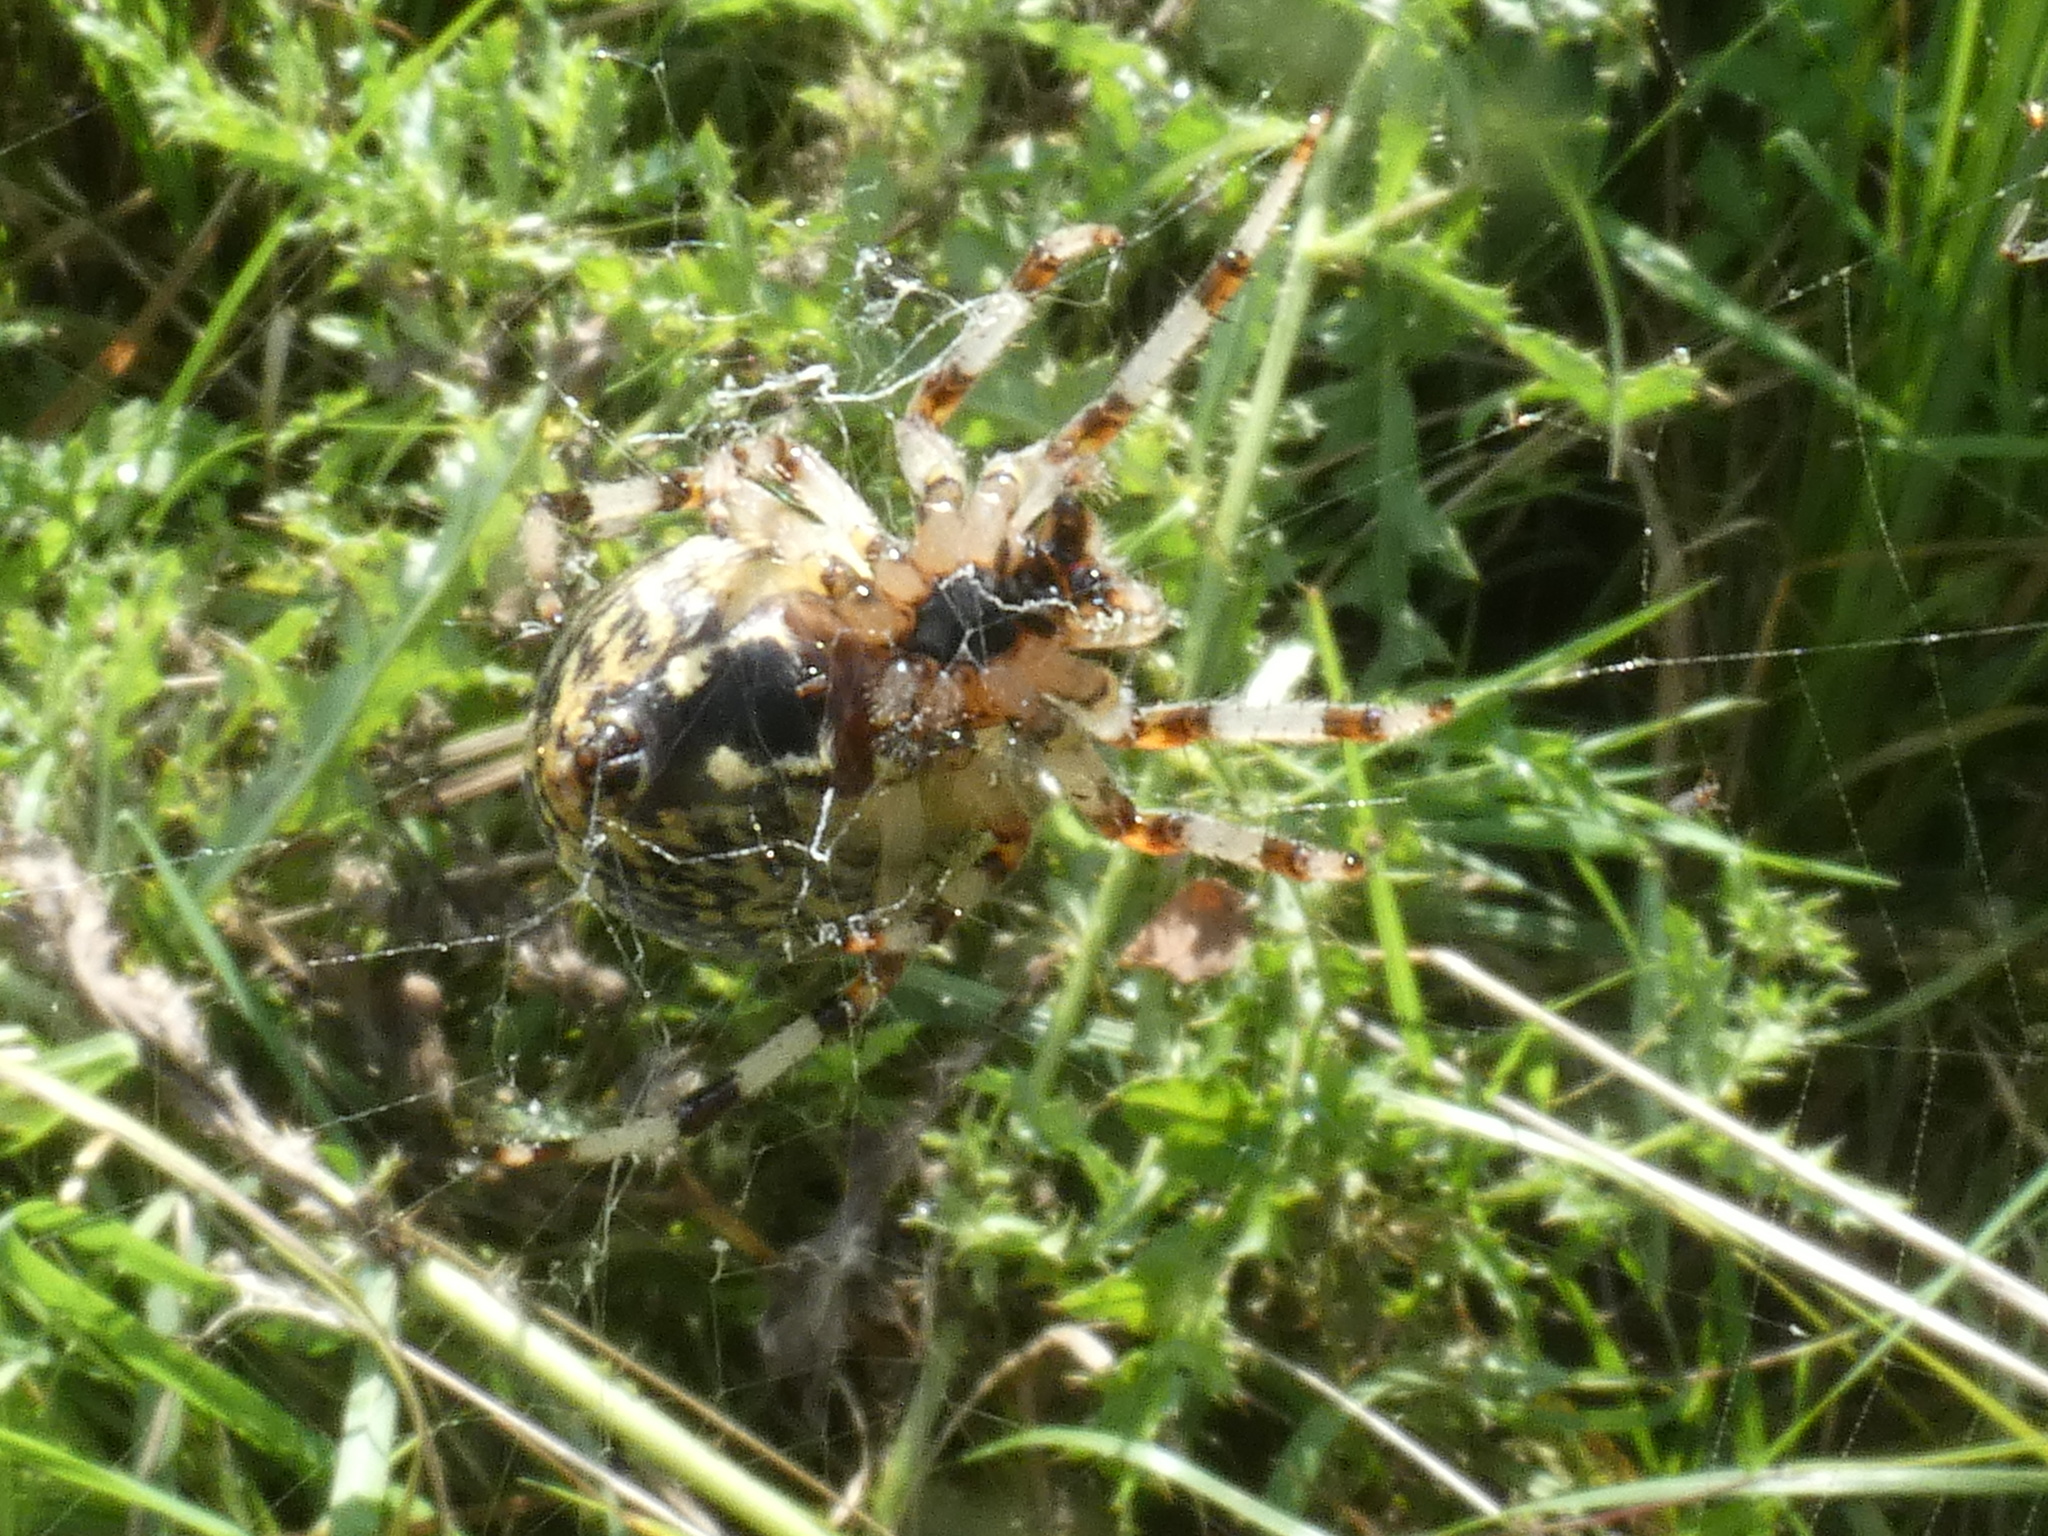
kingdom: Animalia
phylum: Arthropoda
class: Arachnida
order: Araneae
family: Araneidae
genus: Araneus
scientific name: Araneus marmoreus
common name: Marbled orbweaver
